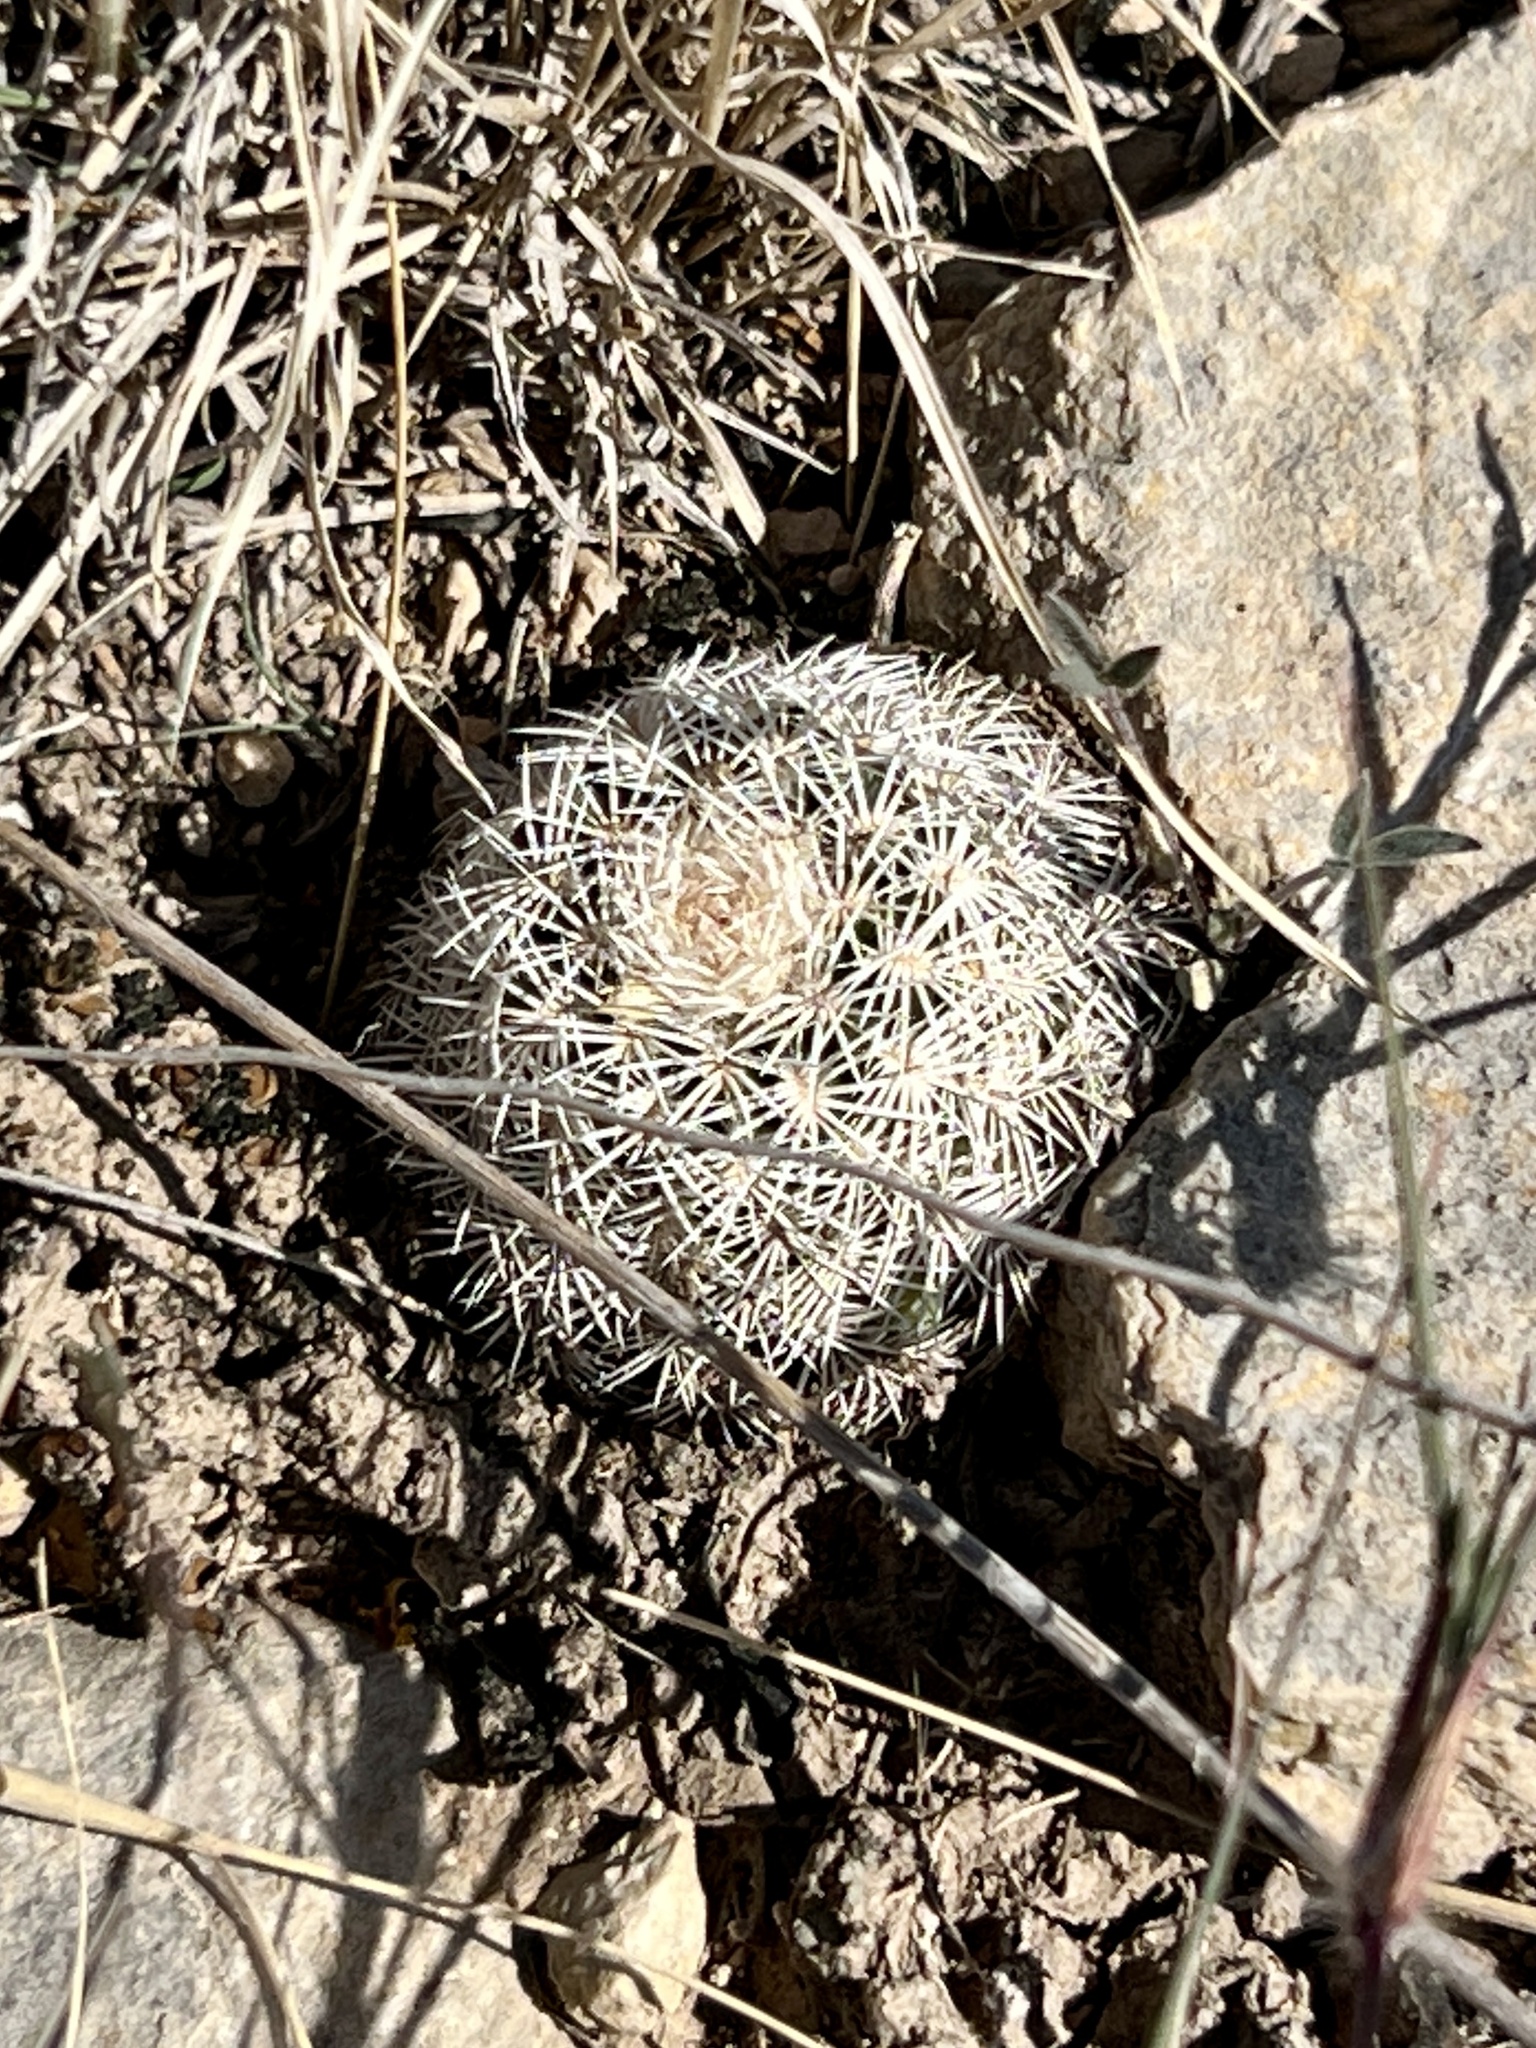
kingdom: Plantae
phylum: Tracheophyta
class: Magnoliopsida
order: Caryophyllales
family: Cactaceae
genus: Echinocereus
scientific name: Echinocereus pectinatus
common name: Rainbow cactus
